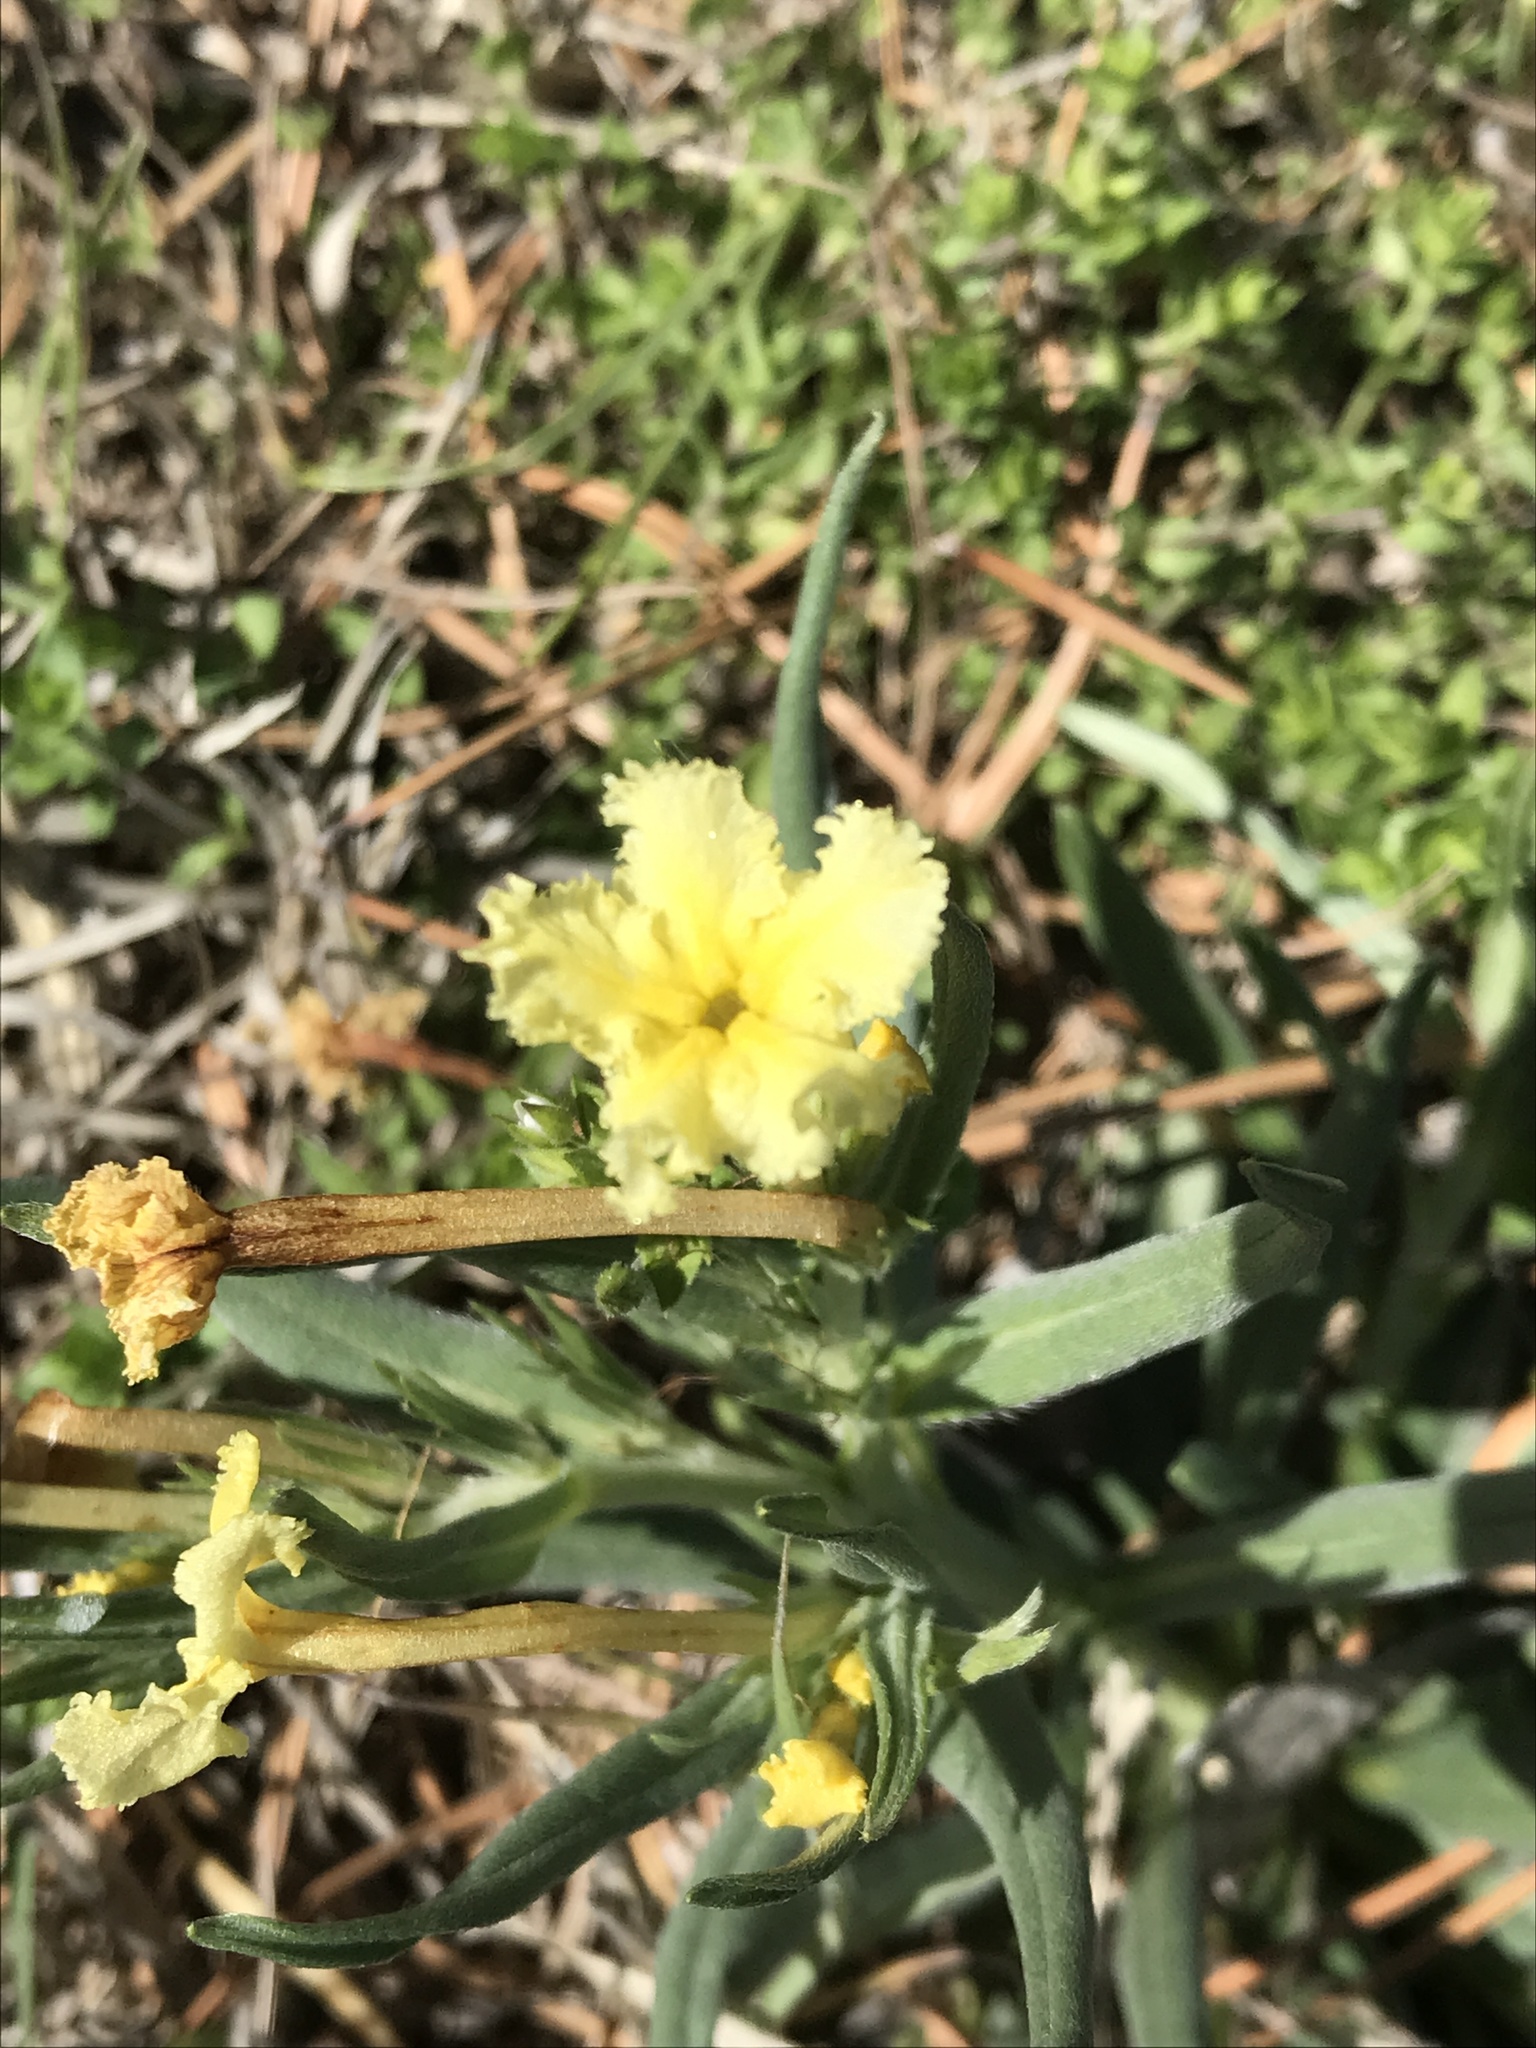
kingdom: Plantae
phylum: Tracheophyta
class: Magnoliopsida
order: Boraginales
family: Boraginaceae
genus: Lithospermum
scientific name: Lithospermum incisum
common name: Fringed gromwell
